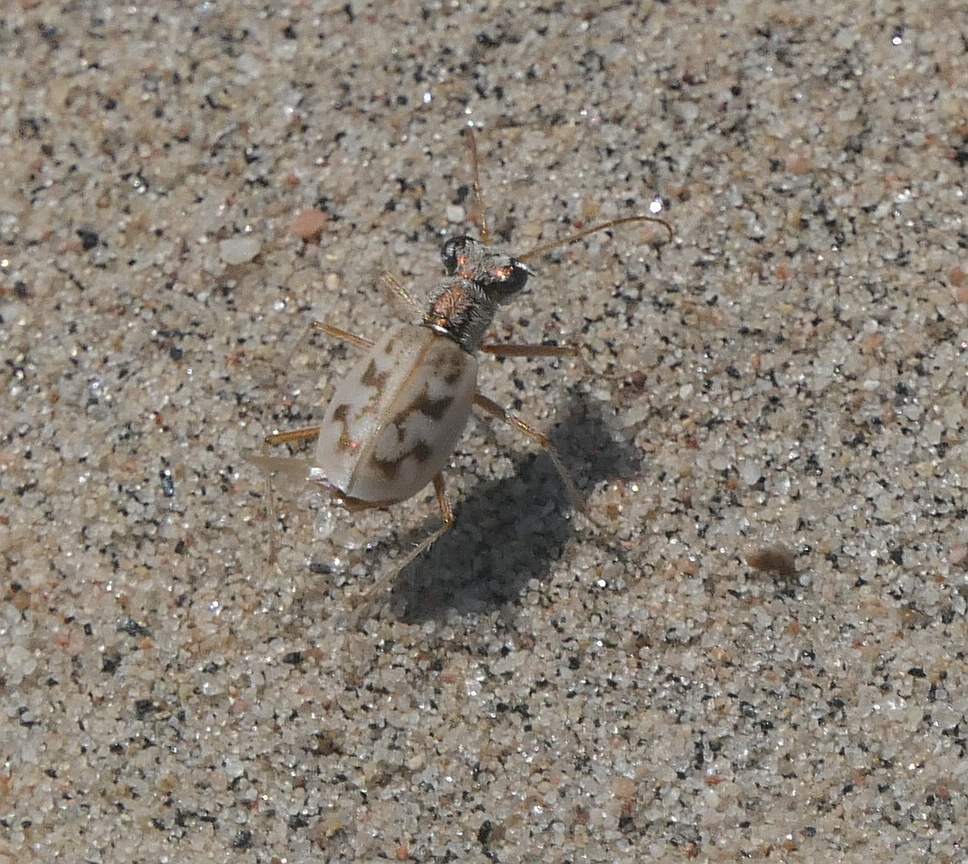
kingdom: Animalia
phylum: Arthropoda
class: Insecta
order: Coleoptera
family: Carabidae
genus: Ellipsoptera
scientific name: Ellipsoptera lepida
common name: Ghost tiger beetle
